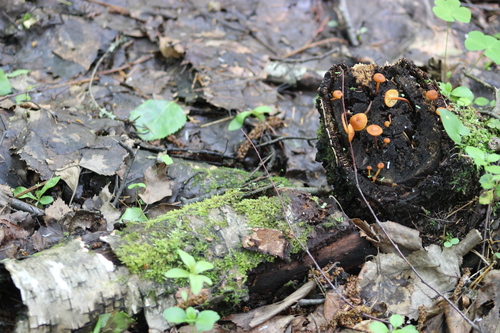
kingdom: Fungi
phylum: Basidiomycota
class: Agaricomycetes
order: Agaricales
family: Mycenaceae
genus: Xeromphalina
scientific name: Xeromphalina campanella
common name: Pinewood gingertail
